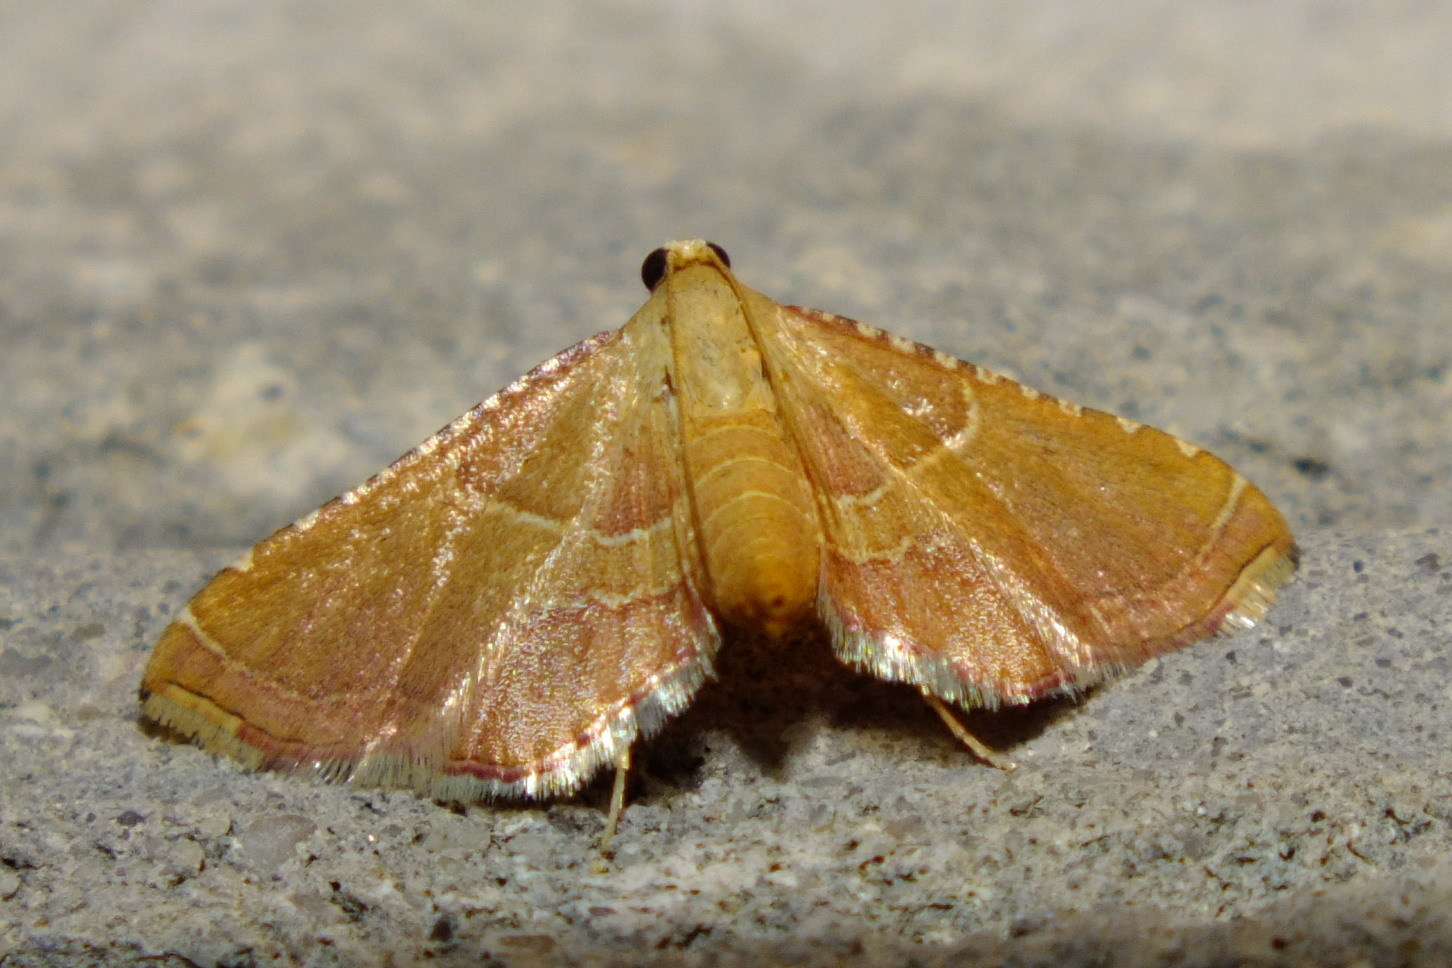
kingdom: Animalia
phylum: Arthropoda
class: Insecta
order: Lepidoptera
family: Pyralidae
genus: Endotricha
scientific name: Endotricha flammealis
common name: Rosy tabby
